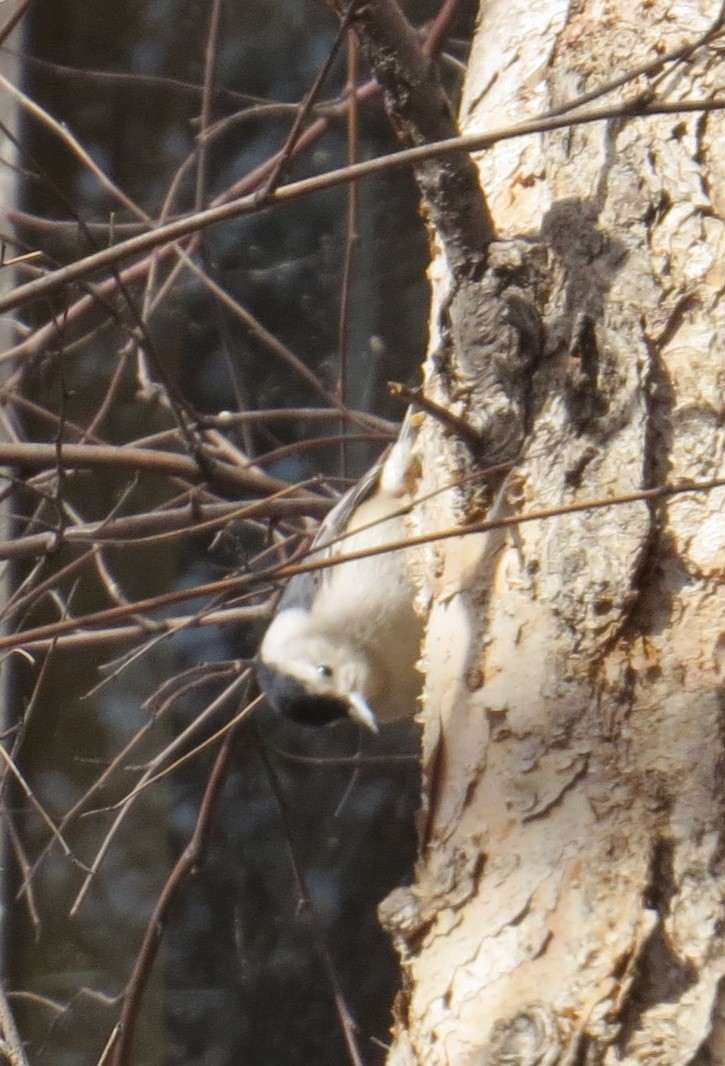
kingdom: Animalia
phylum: Chordata
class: Aves
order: Passeriformes
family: Sittidae
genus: Sitta
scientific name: Sitta carolinensis
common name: White-breasted nuthatch
